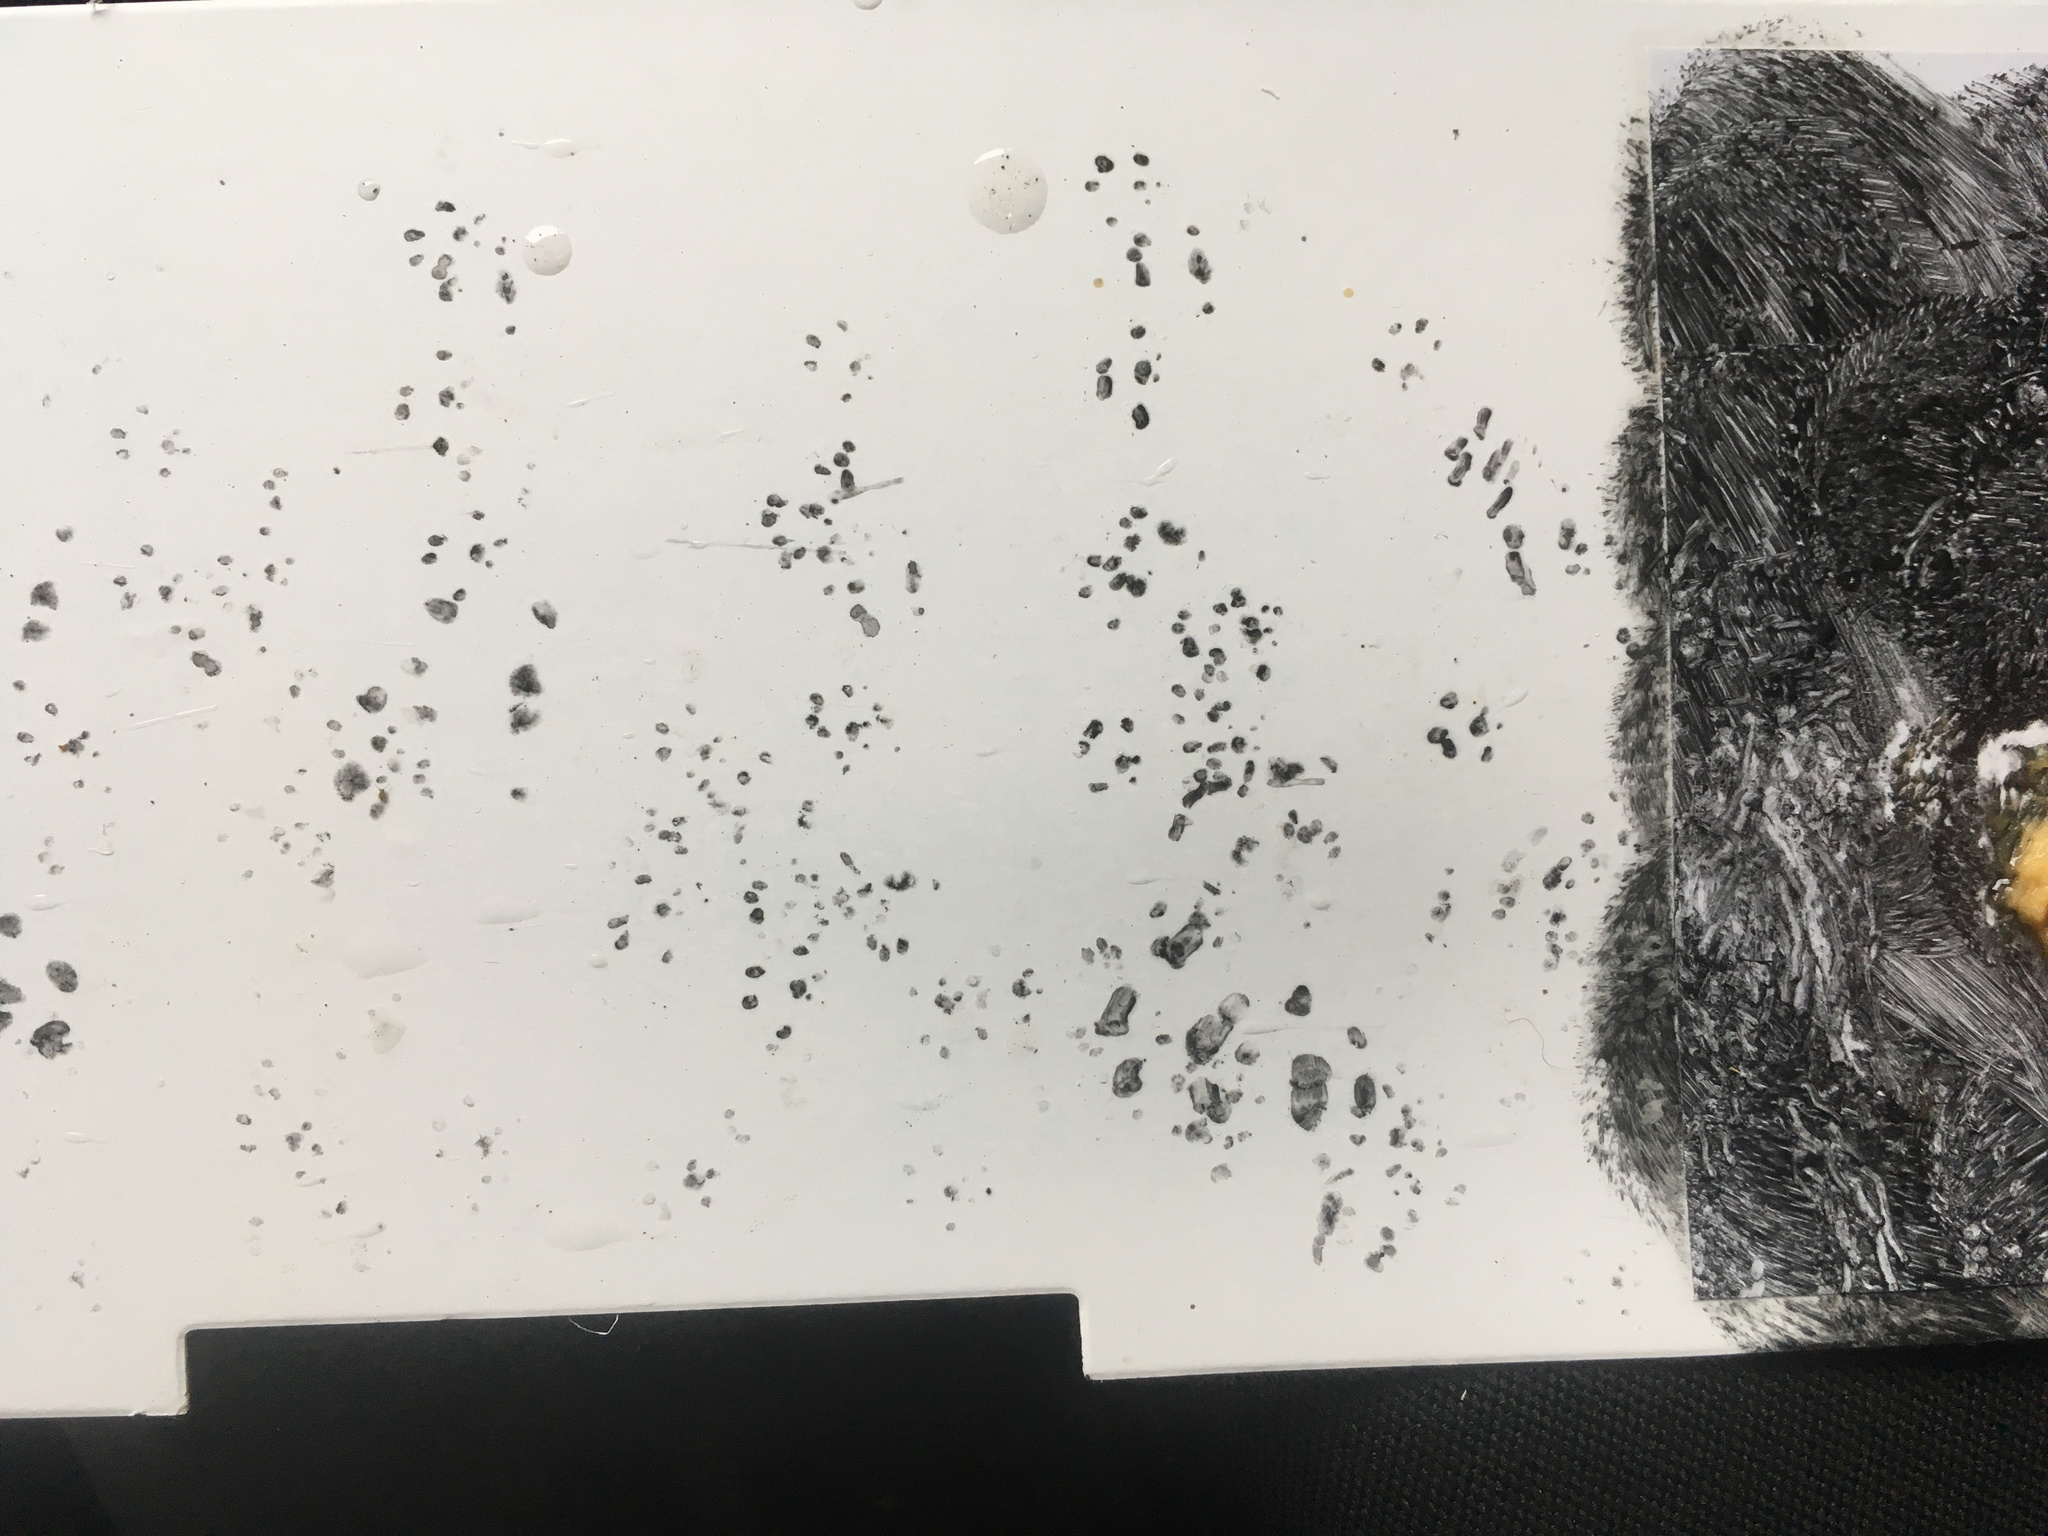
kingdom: Animalia
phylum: Chordata
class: Mammalia
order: Rodentia
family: Muridae
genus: Mus
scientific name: Mus musculus
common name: House mouse
